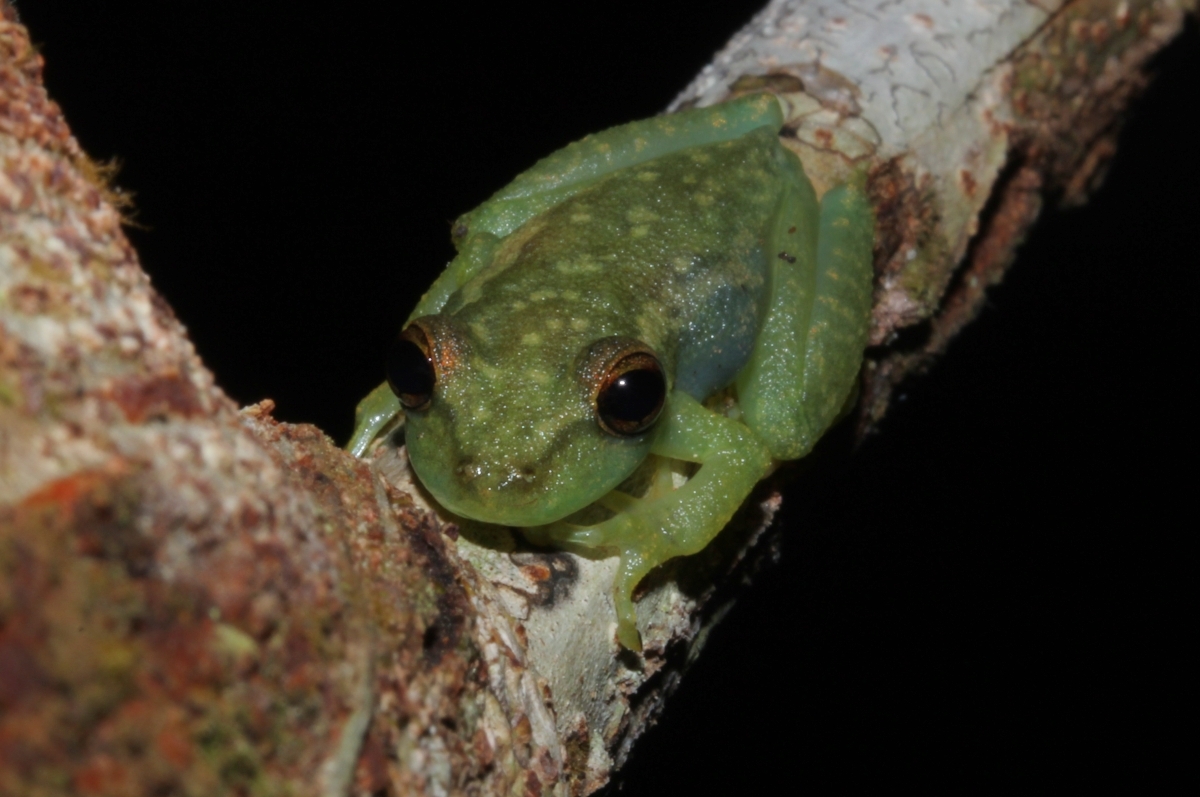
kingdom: Animalia
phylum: Chordata
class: Amphibia
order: Anura
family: Hylidae
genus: Scinax
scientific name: Scinax ruber
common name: Red snouted treefrog
